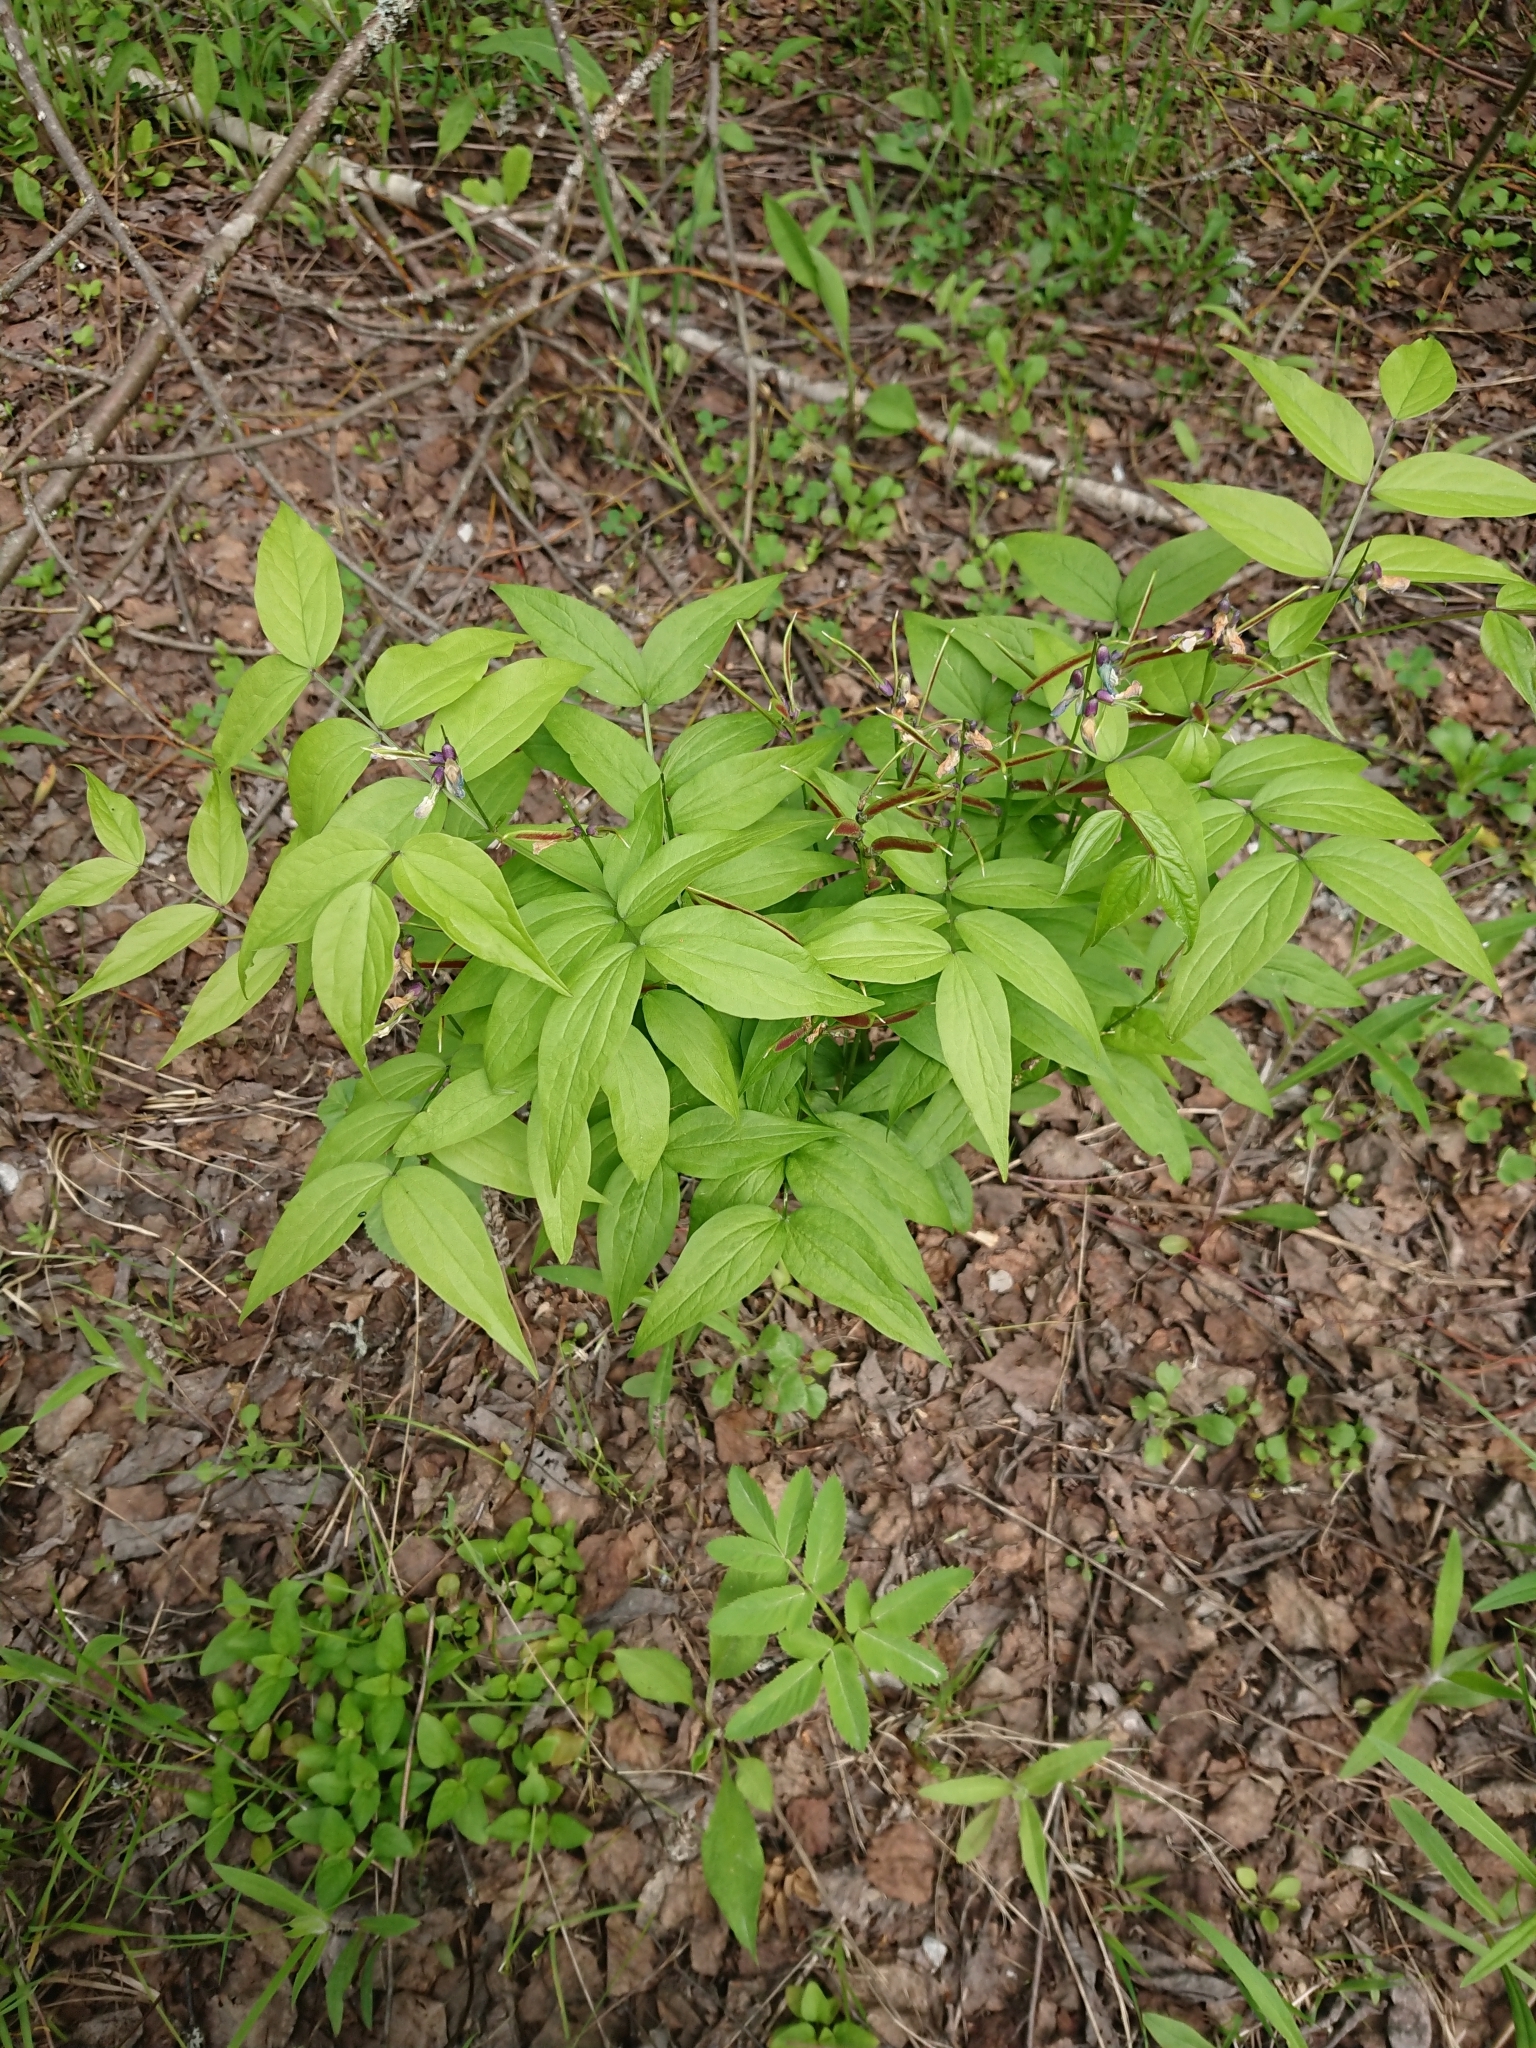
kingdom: Plantae
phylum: Tracheophyta
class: Magnoliopsida
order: Fabales
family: Fabaceae
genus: Lathyrus
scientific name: Lathyrus vernus
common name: Spring pea
